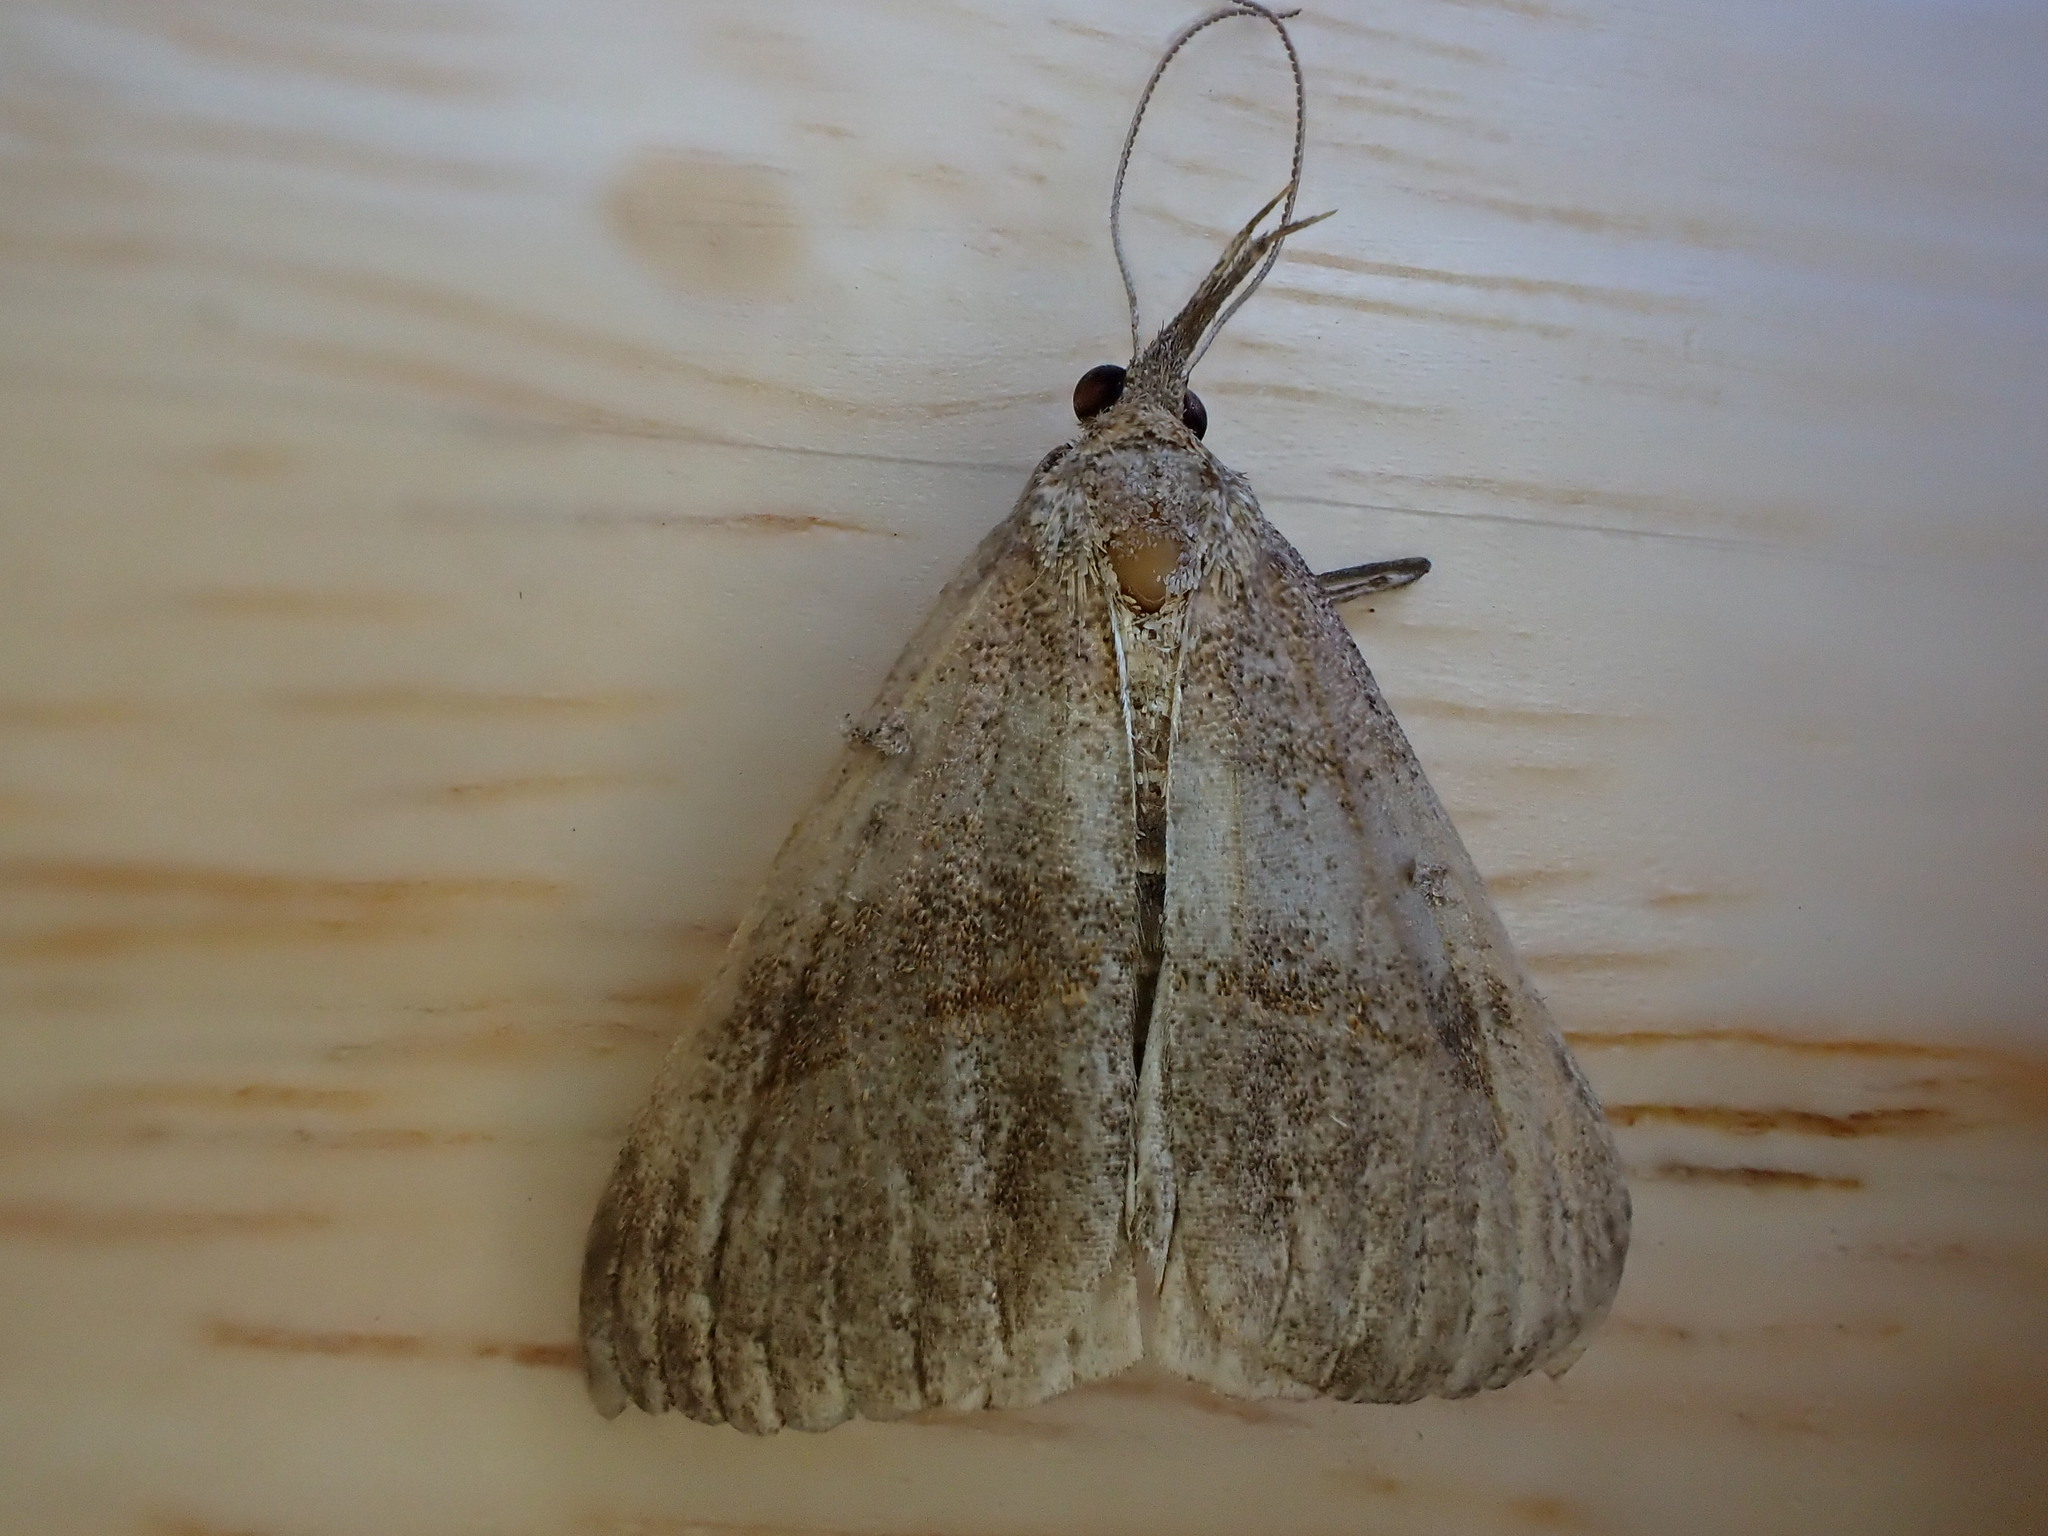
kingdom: Animalia
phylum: Arthropoda
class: Insecta
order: Lepidoptera
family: Erebidae
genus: Hypena
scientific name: Hypena proboscidalis
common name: Snout
